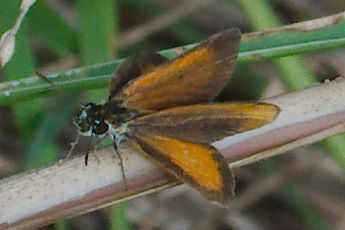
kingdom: Animalia
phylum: Arthropoda
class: Insecta
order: Lepidoptera
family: Hesperiidae
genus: Ancyloxypha
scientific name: Ancyloxypha numitor
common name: Least skipper
